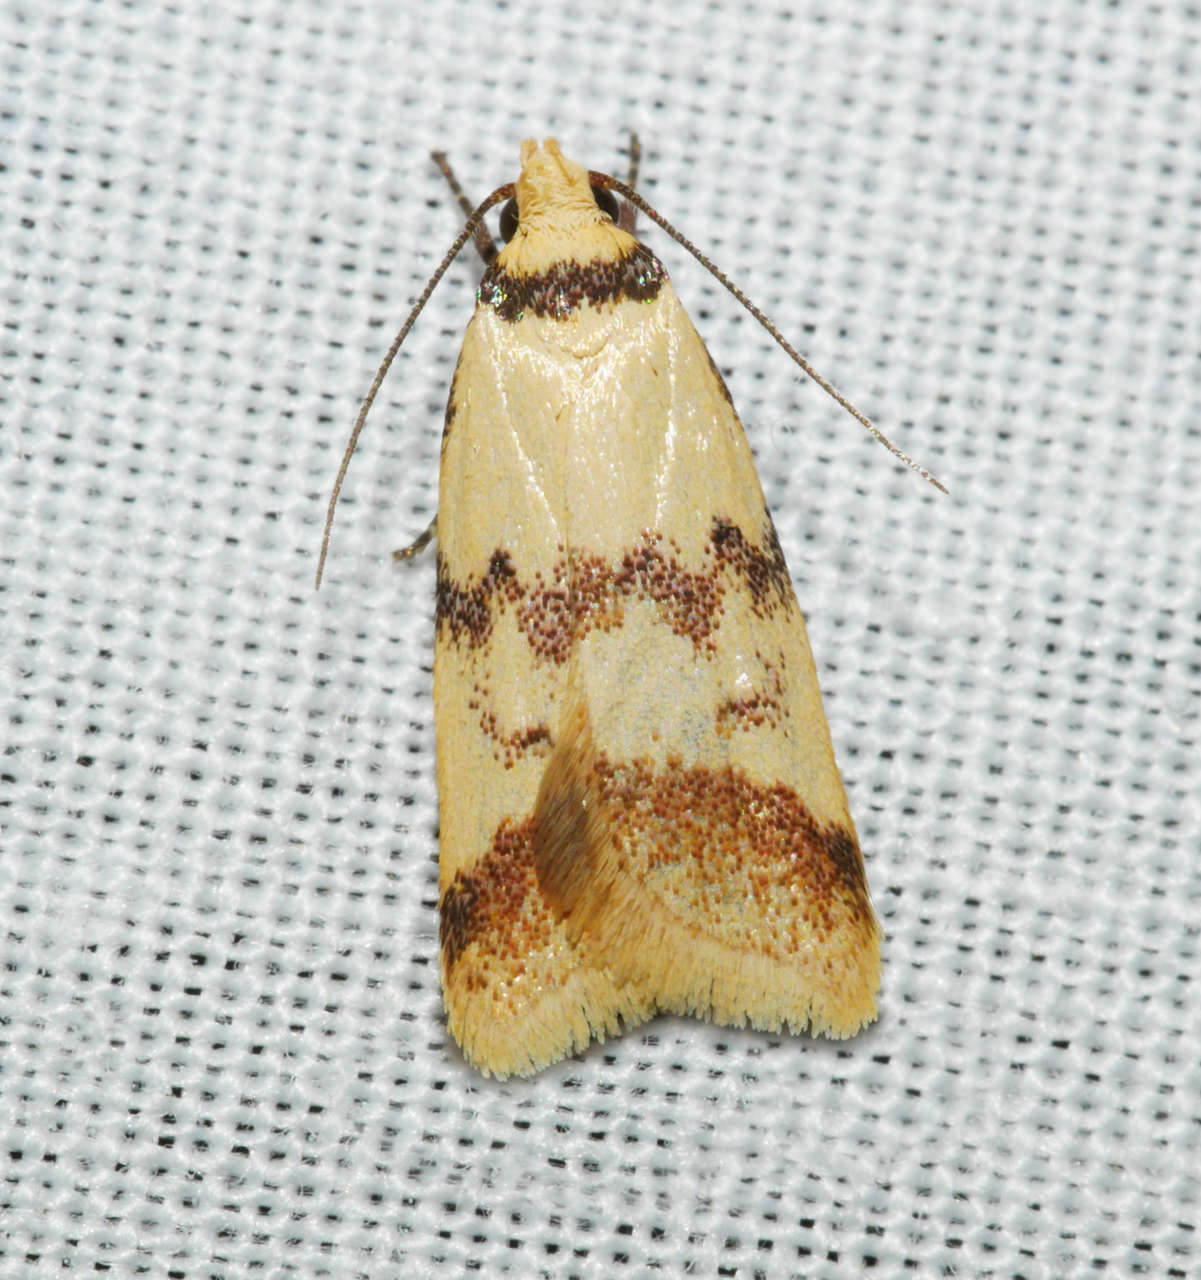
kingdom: Animalia
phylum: Arthropoda
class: Insecta
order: Lepidoptera
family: Oecophoridae
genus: Heteroteucha
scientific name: Heteroteucha anthodora
